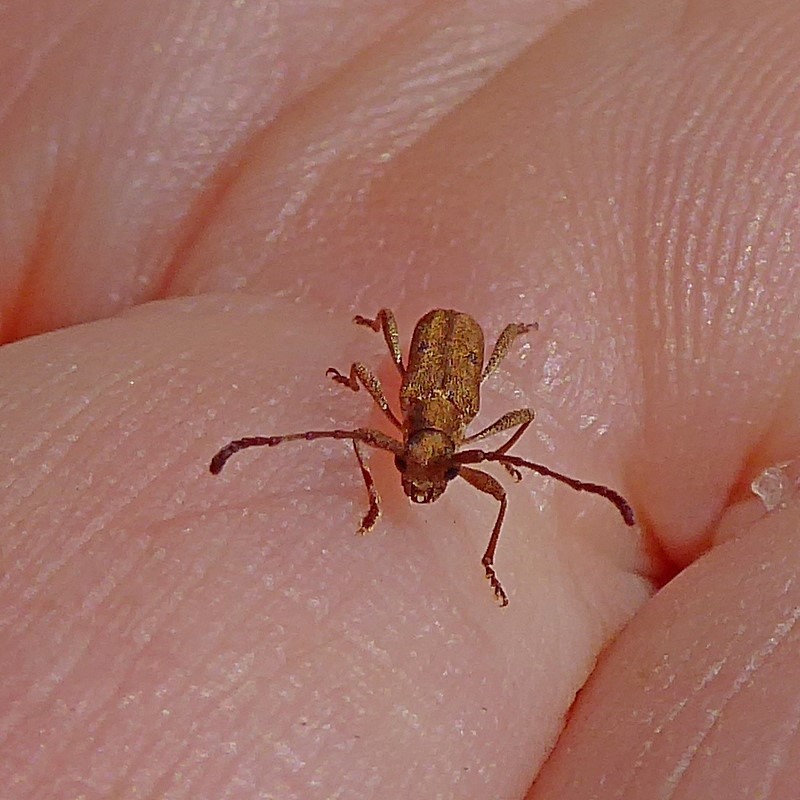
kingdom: Animalia
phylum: Arthropoda
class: Insecta
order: Coleoptera
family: Cerambycidae
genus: Pempsamacra
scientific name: Pempsamacra tillides
